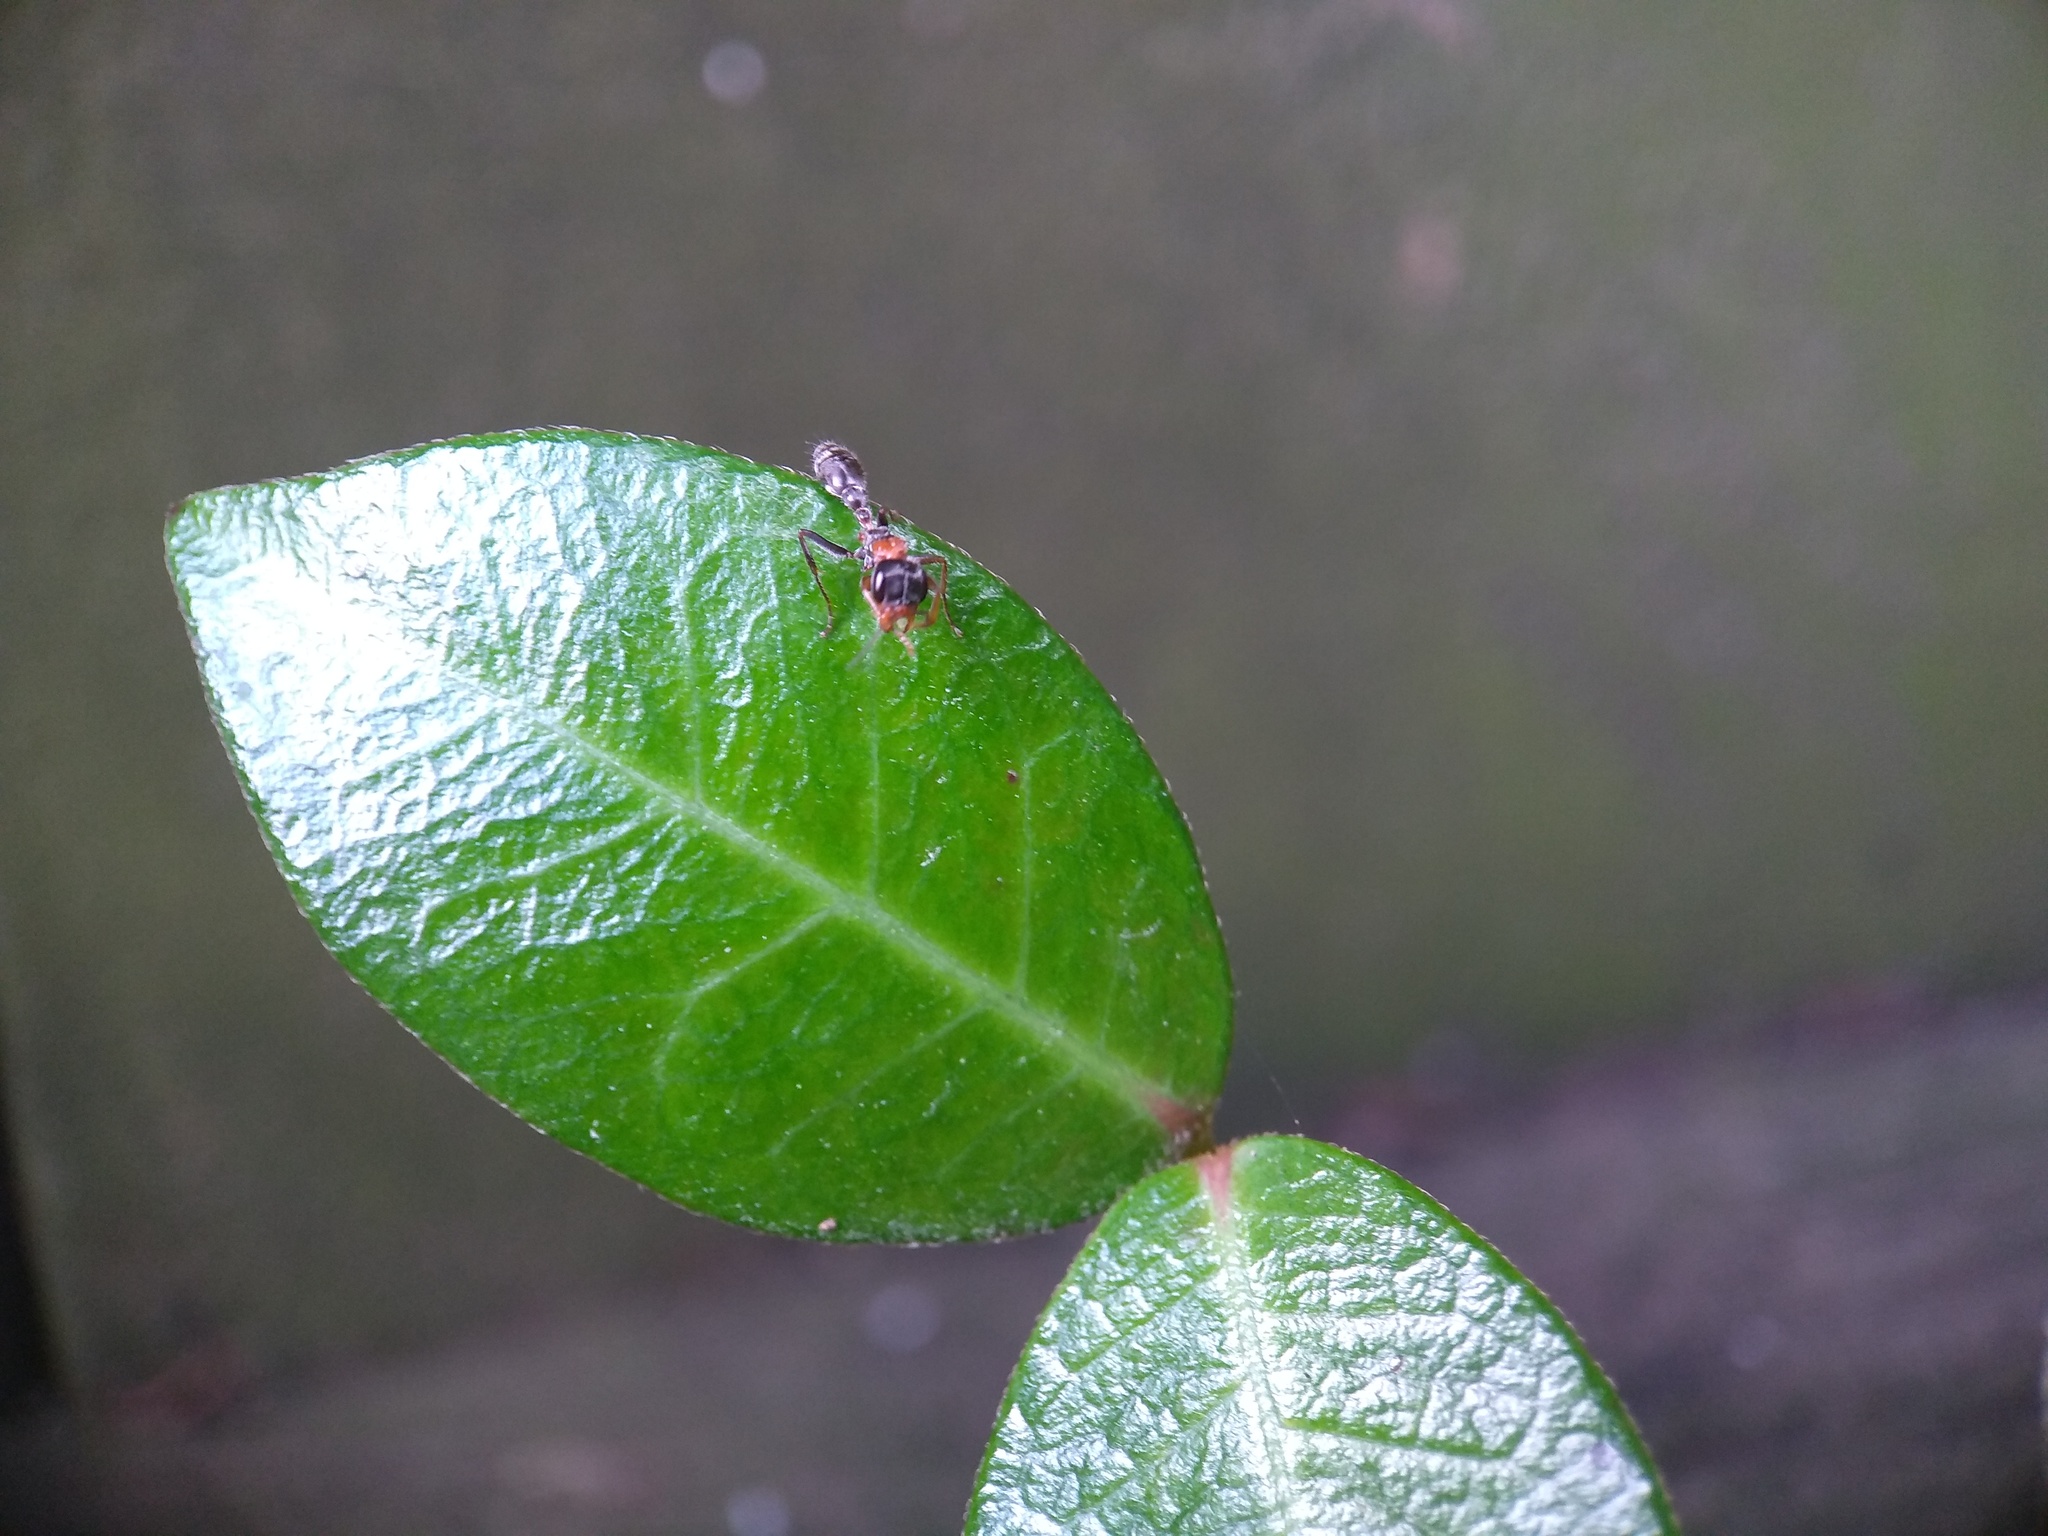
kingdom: Animalia
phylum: Arthropoda
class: Insecta
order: Hymenoptera
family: Formicidae
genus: Pseudomyrmex
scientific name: Pseudomyrmex gracilis
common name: Graceful twig ant
